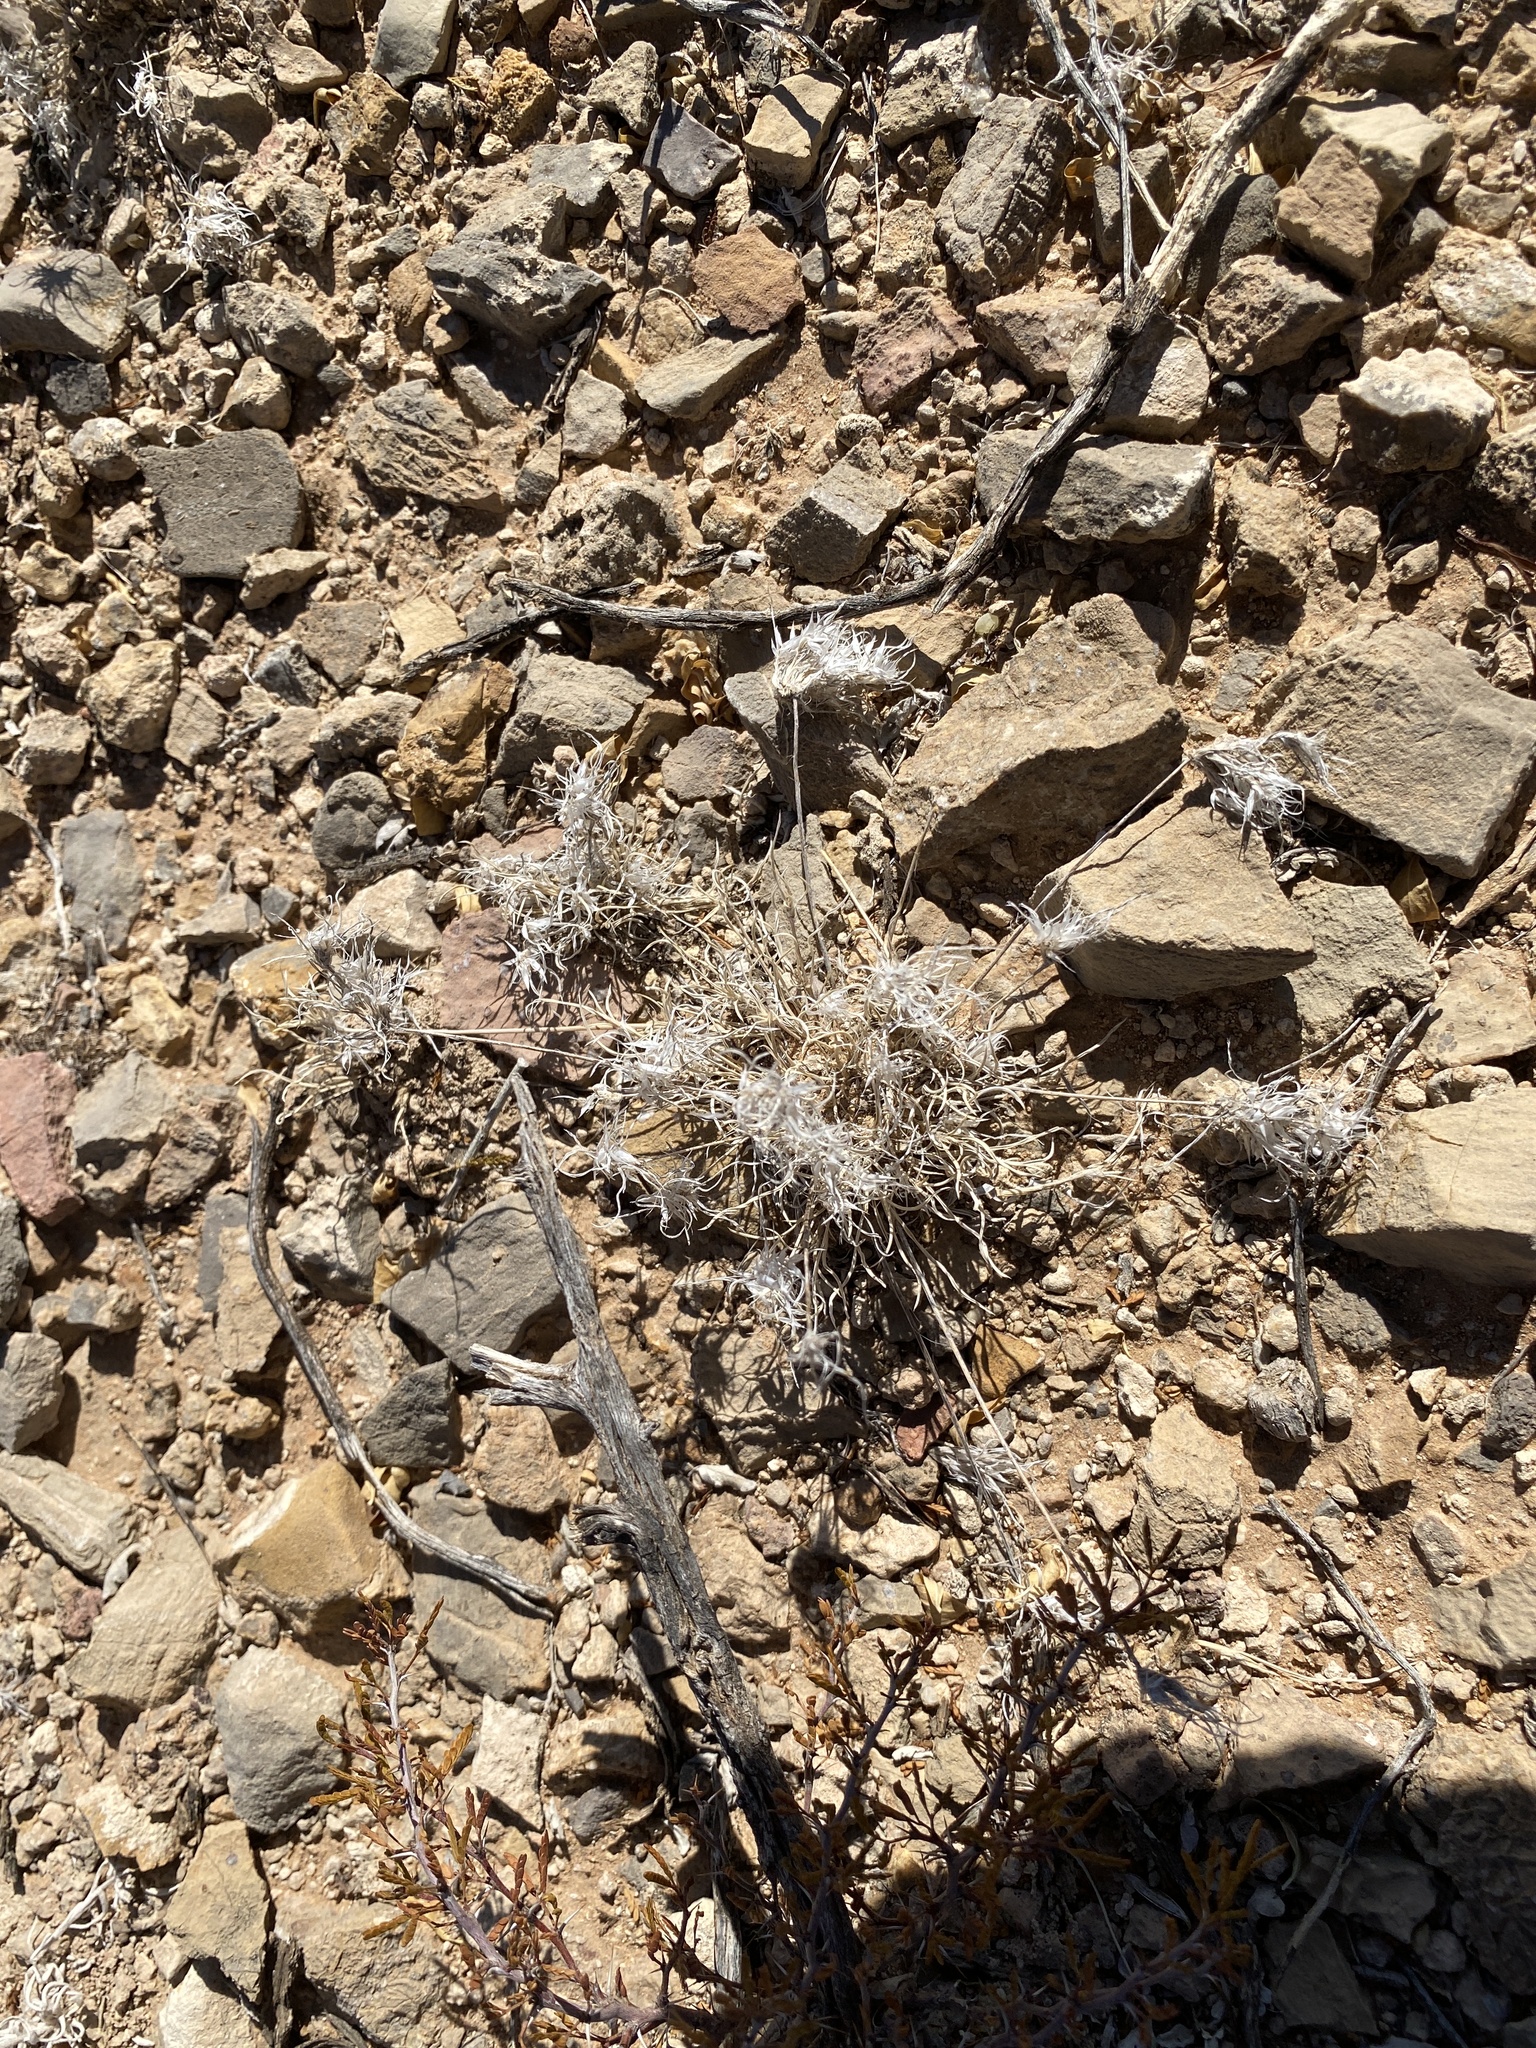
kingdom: Plantae
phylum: Tracheophyta
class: Liliopsida
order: Poales
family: Poaceae
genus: Dasyochloa
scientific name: Dasyochloa pulchella
